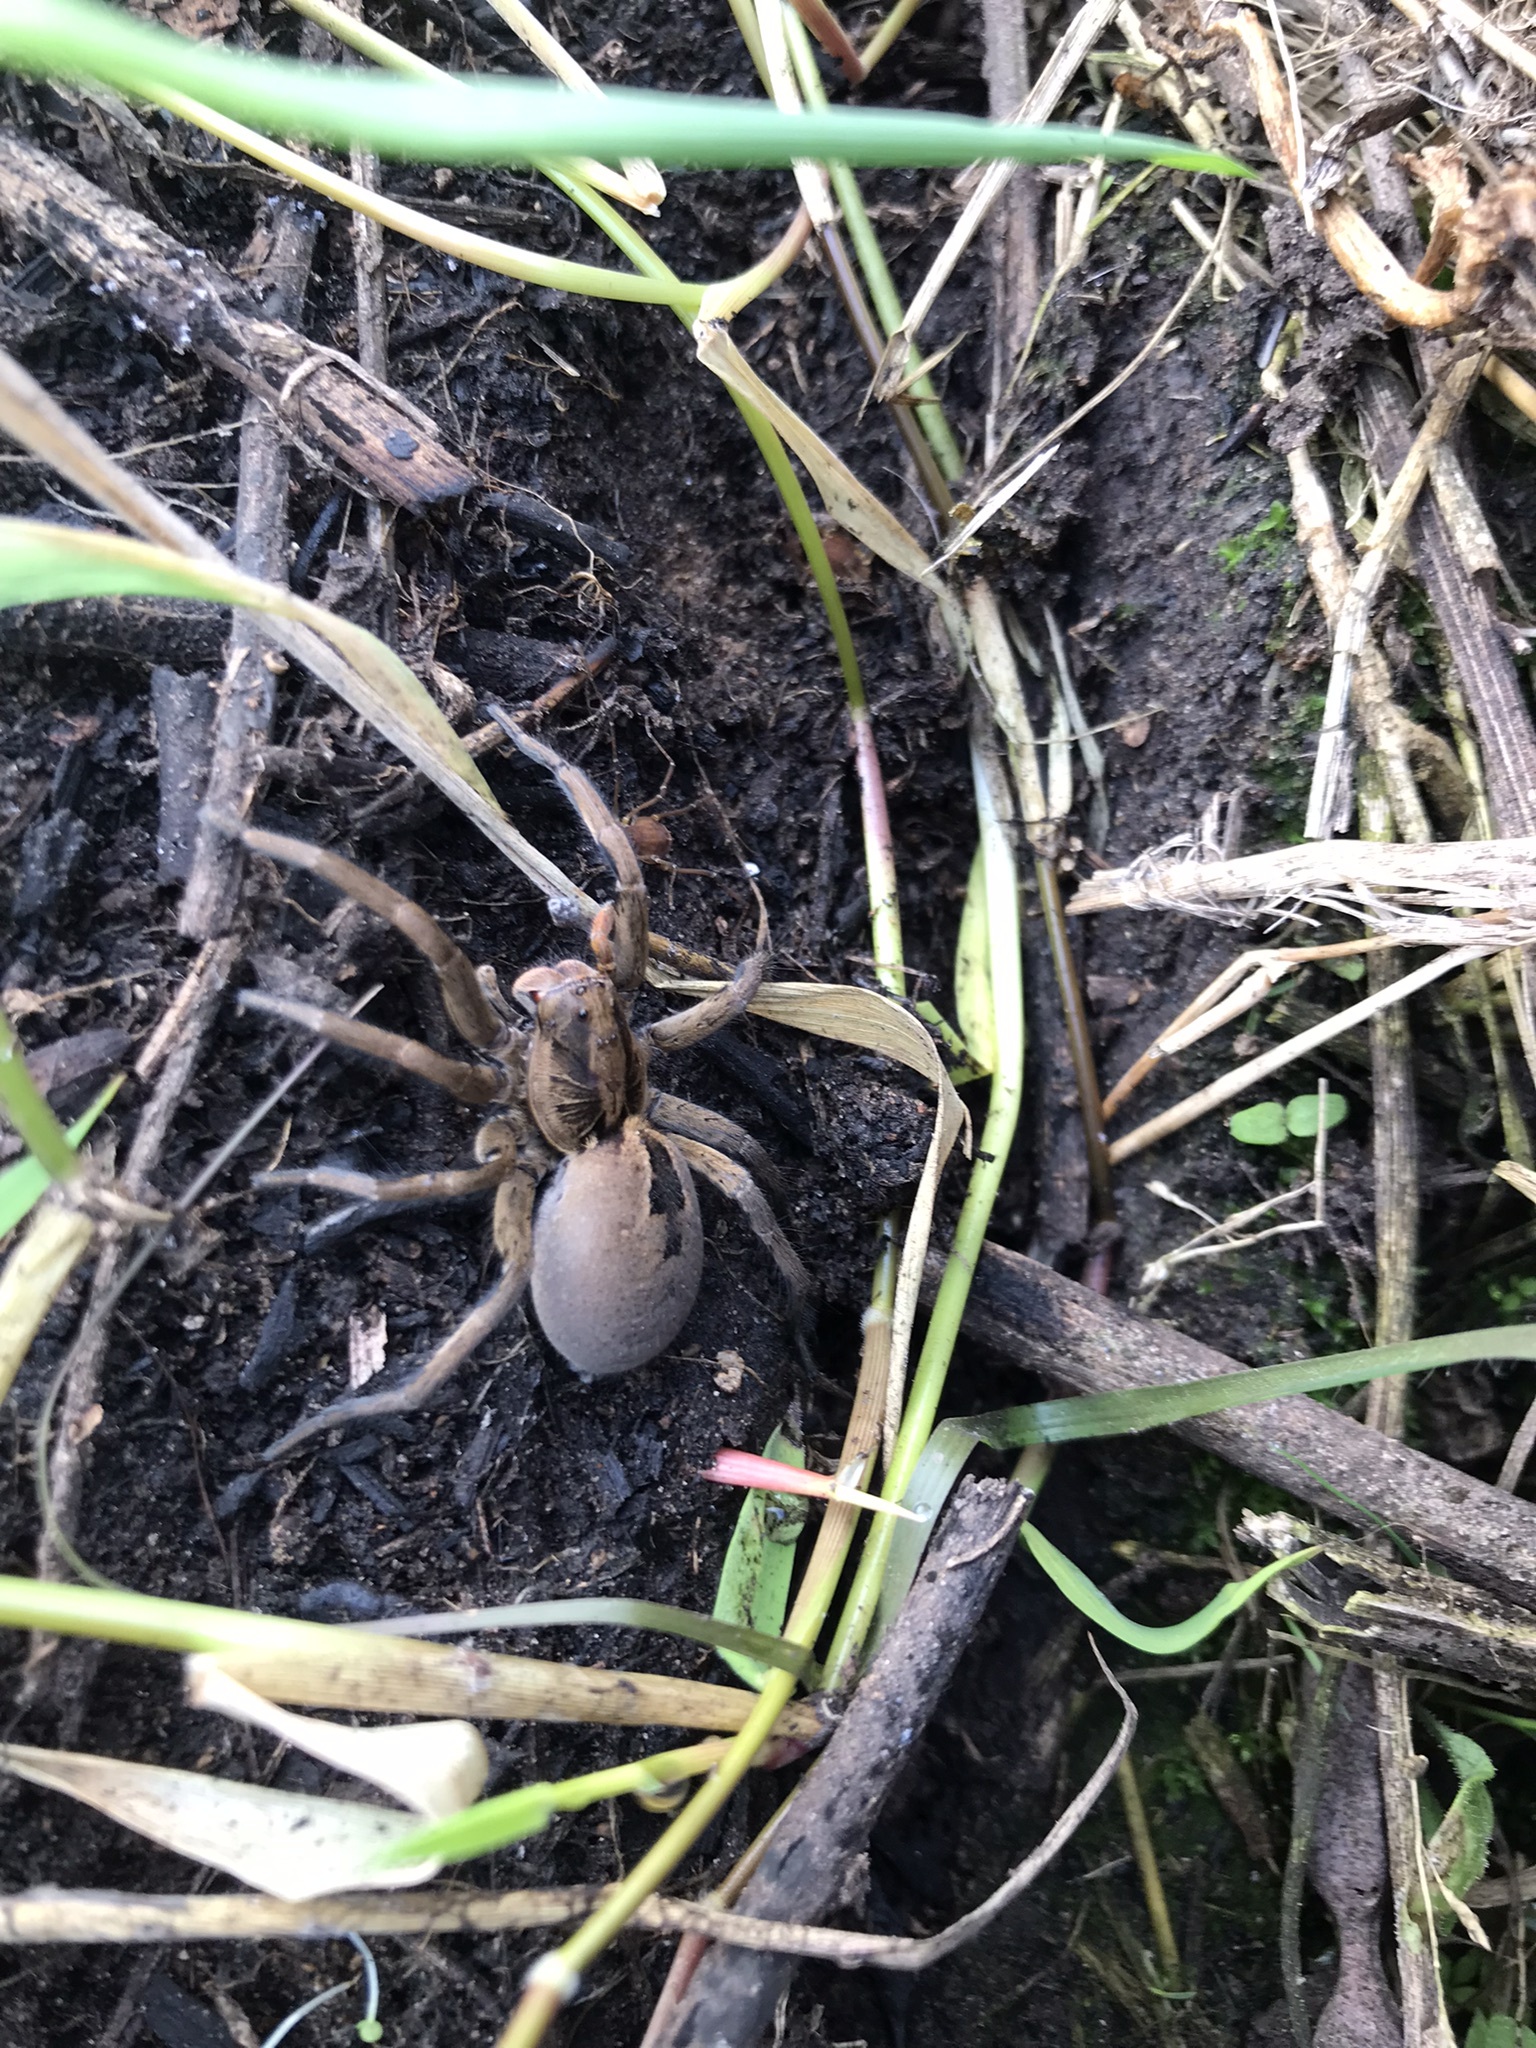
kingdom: Animalia
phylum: Arthropoda
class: Arachnida
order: Araneae
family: Lycosidae
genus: Lycosa
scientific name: Lycosa erythrognatha
